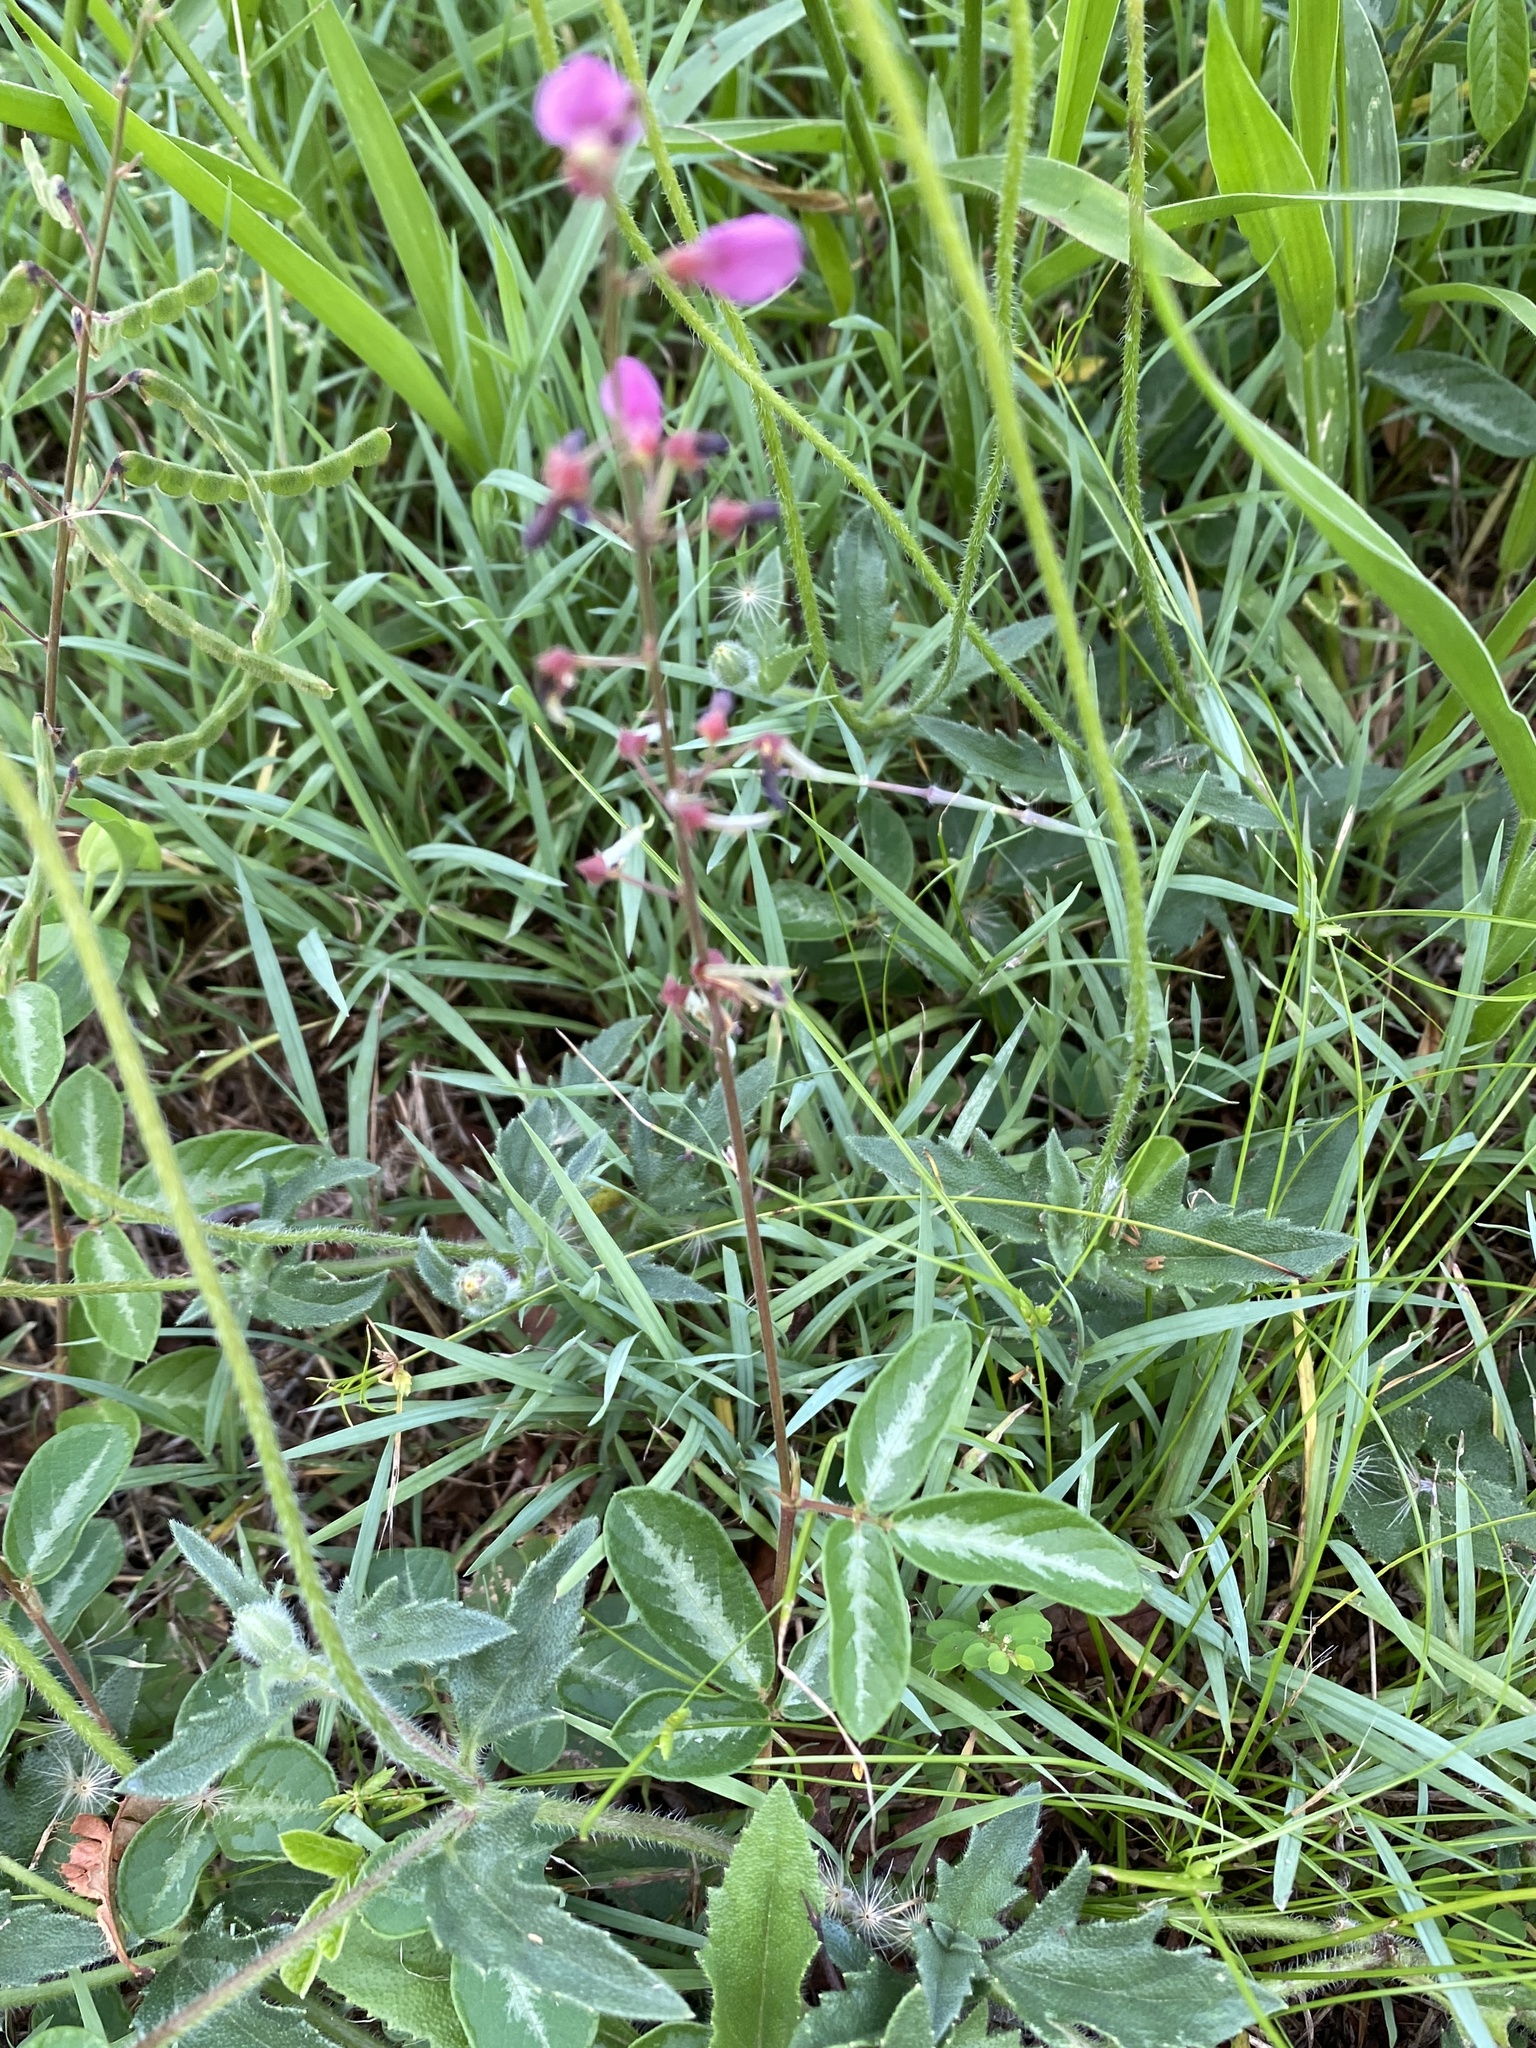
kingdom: Plantae
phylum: Tracheophyta
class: Magnoliopsida
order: Fabales
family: Fabaceae
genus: Desmodium
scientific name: Desmodium incanum
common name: Tickclover
